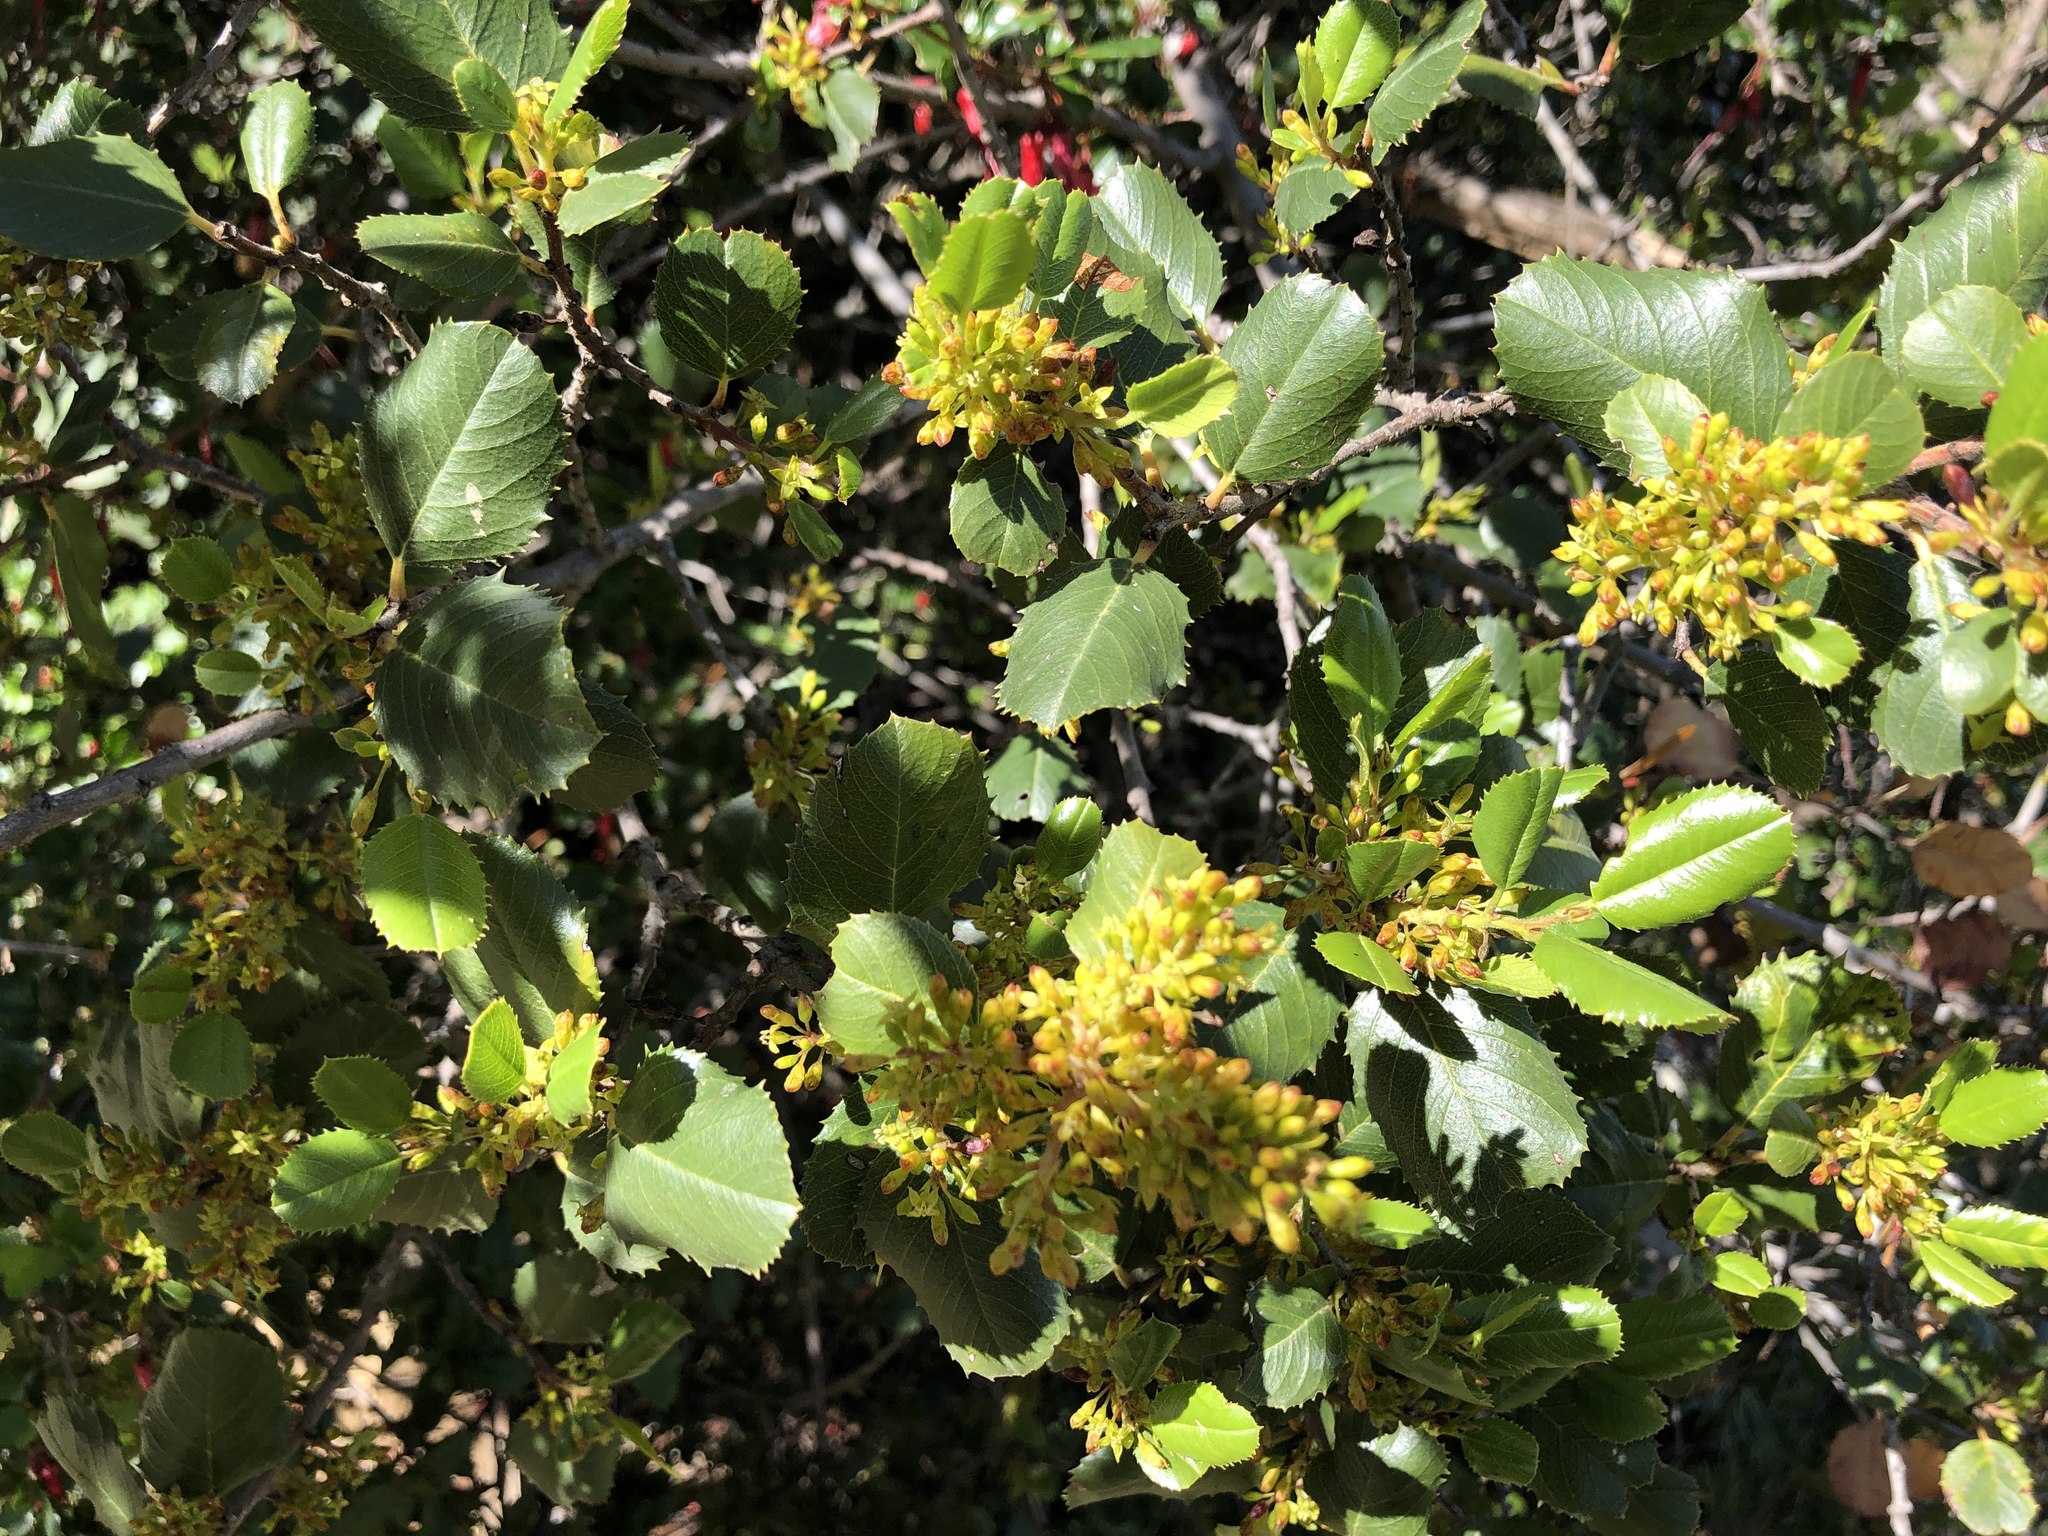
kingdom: Plantae
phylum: Tracheophyta
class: Magnoliopsida
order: Rosales
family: Rhamnaceae
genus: Endotropis
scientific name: Endotropis crocea
